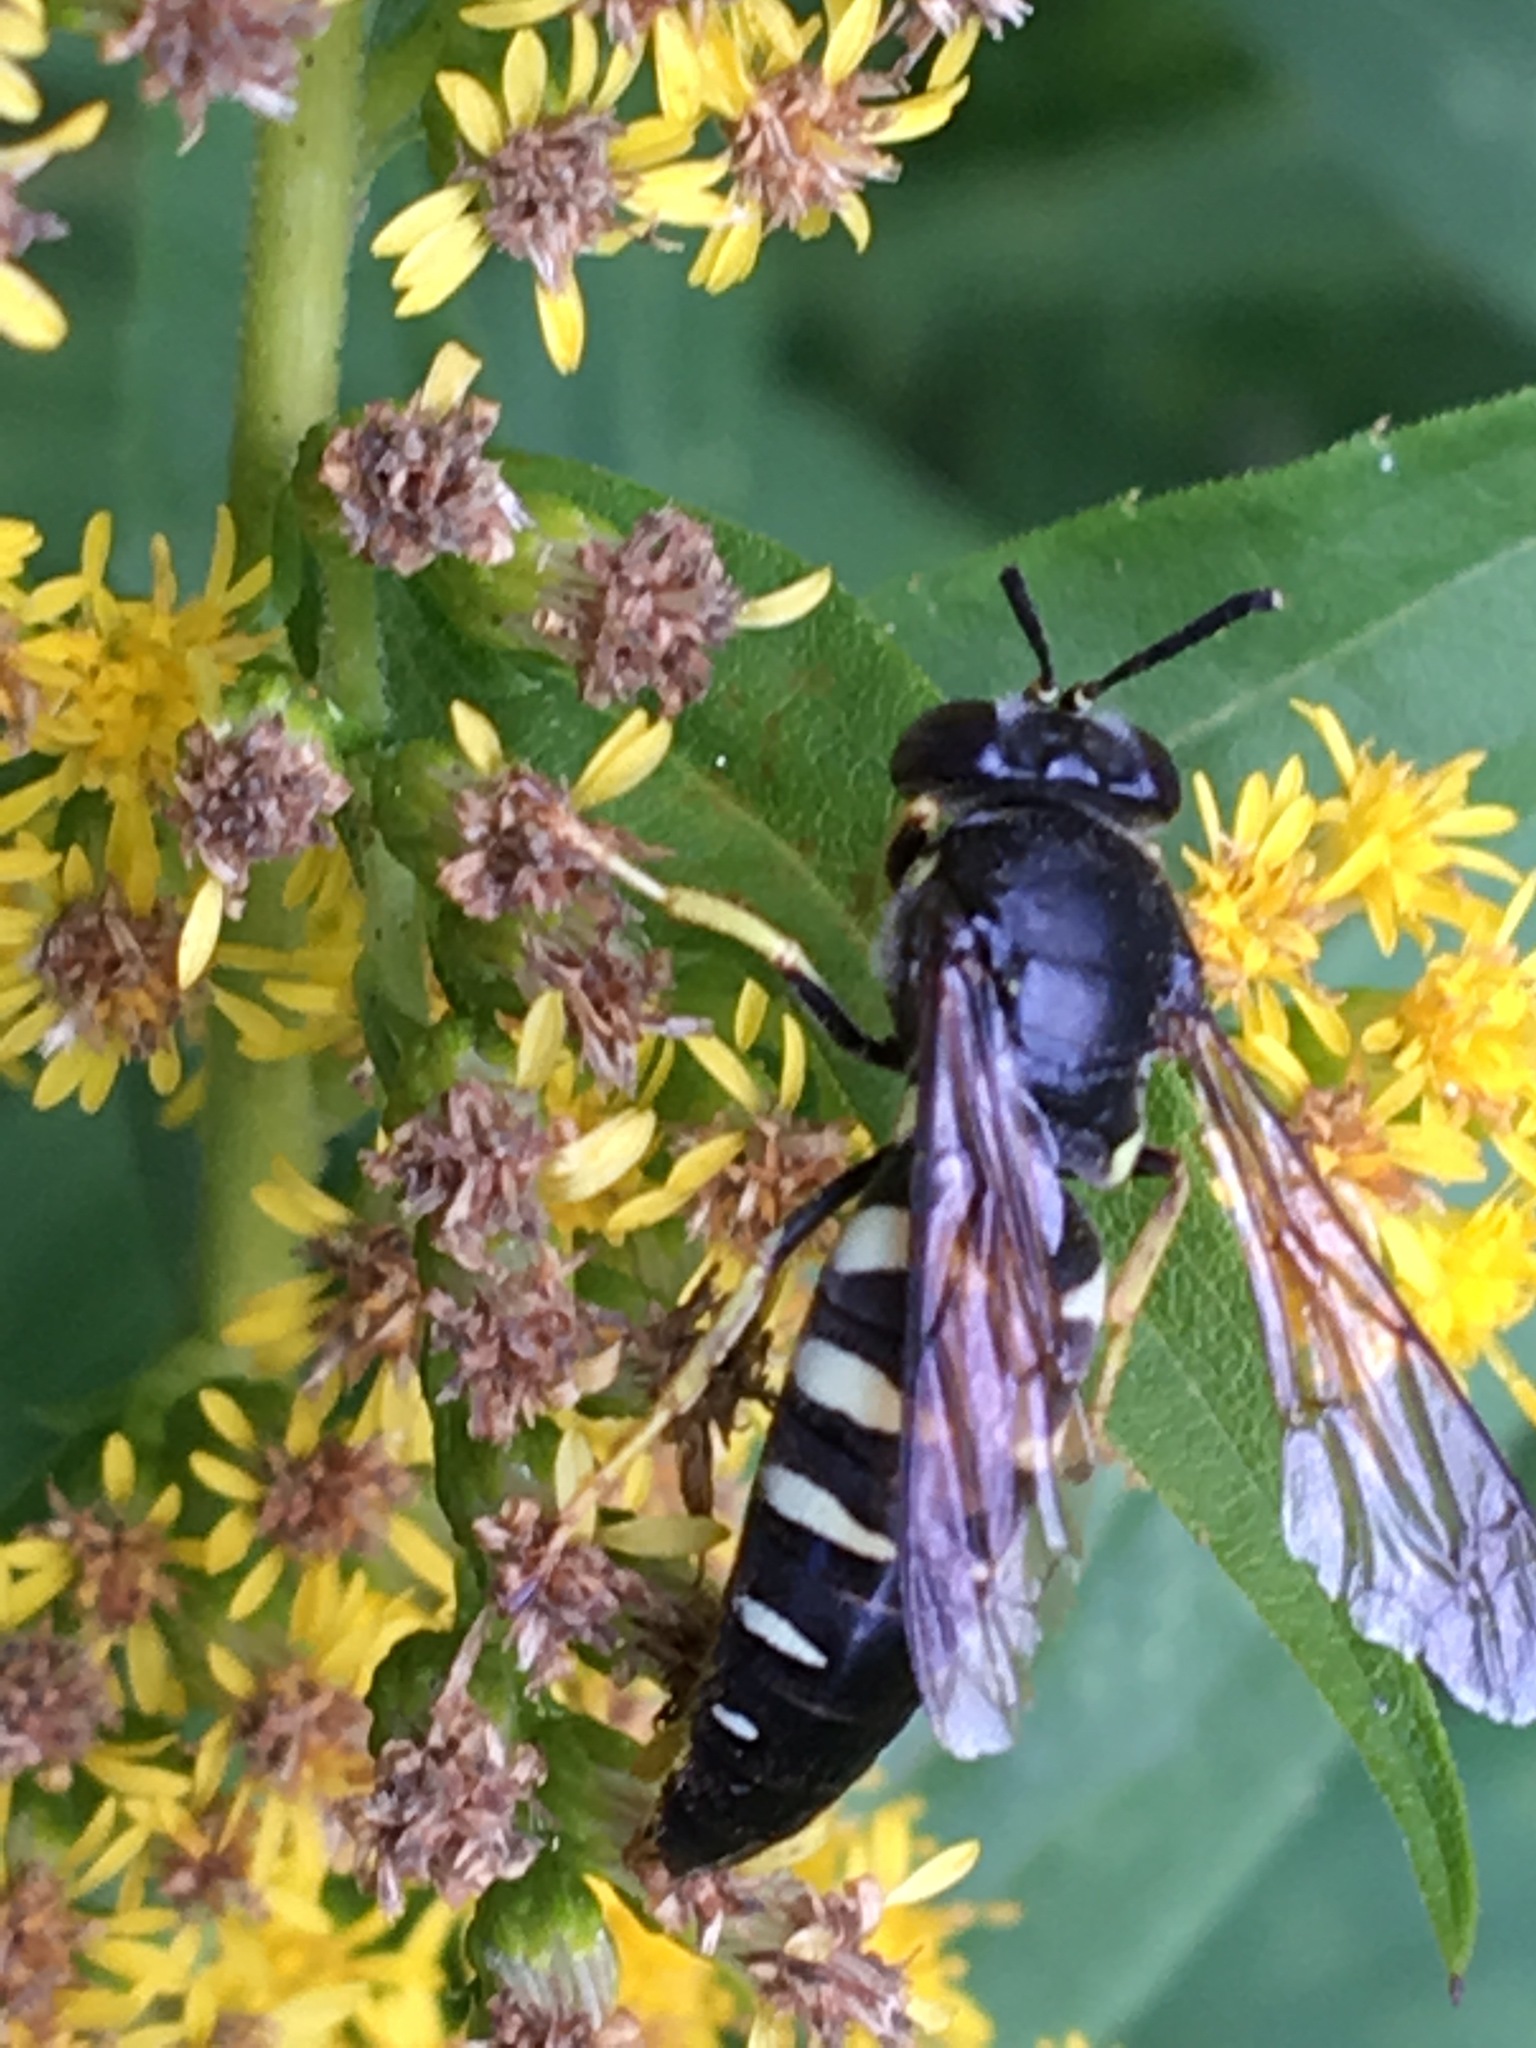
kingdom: Animalia
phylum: Arthropoda
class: Insecta
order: Hymenoptera
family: Crabronidae
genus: Bicyrtes
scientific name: Bicyrtes quadrifasciatus
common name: Four-banded stink bug hunter wasp
